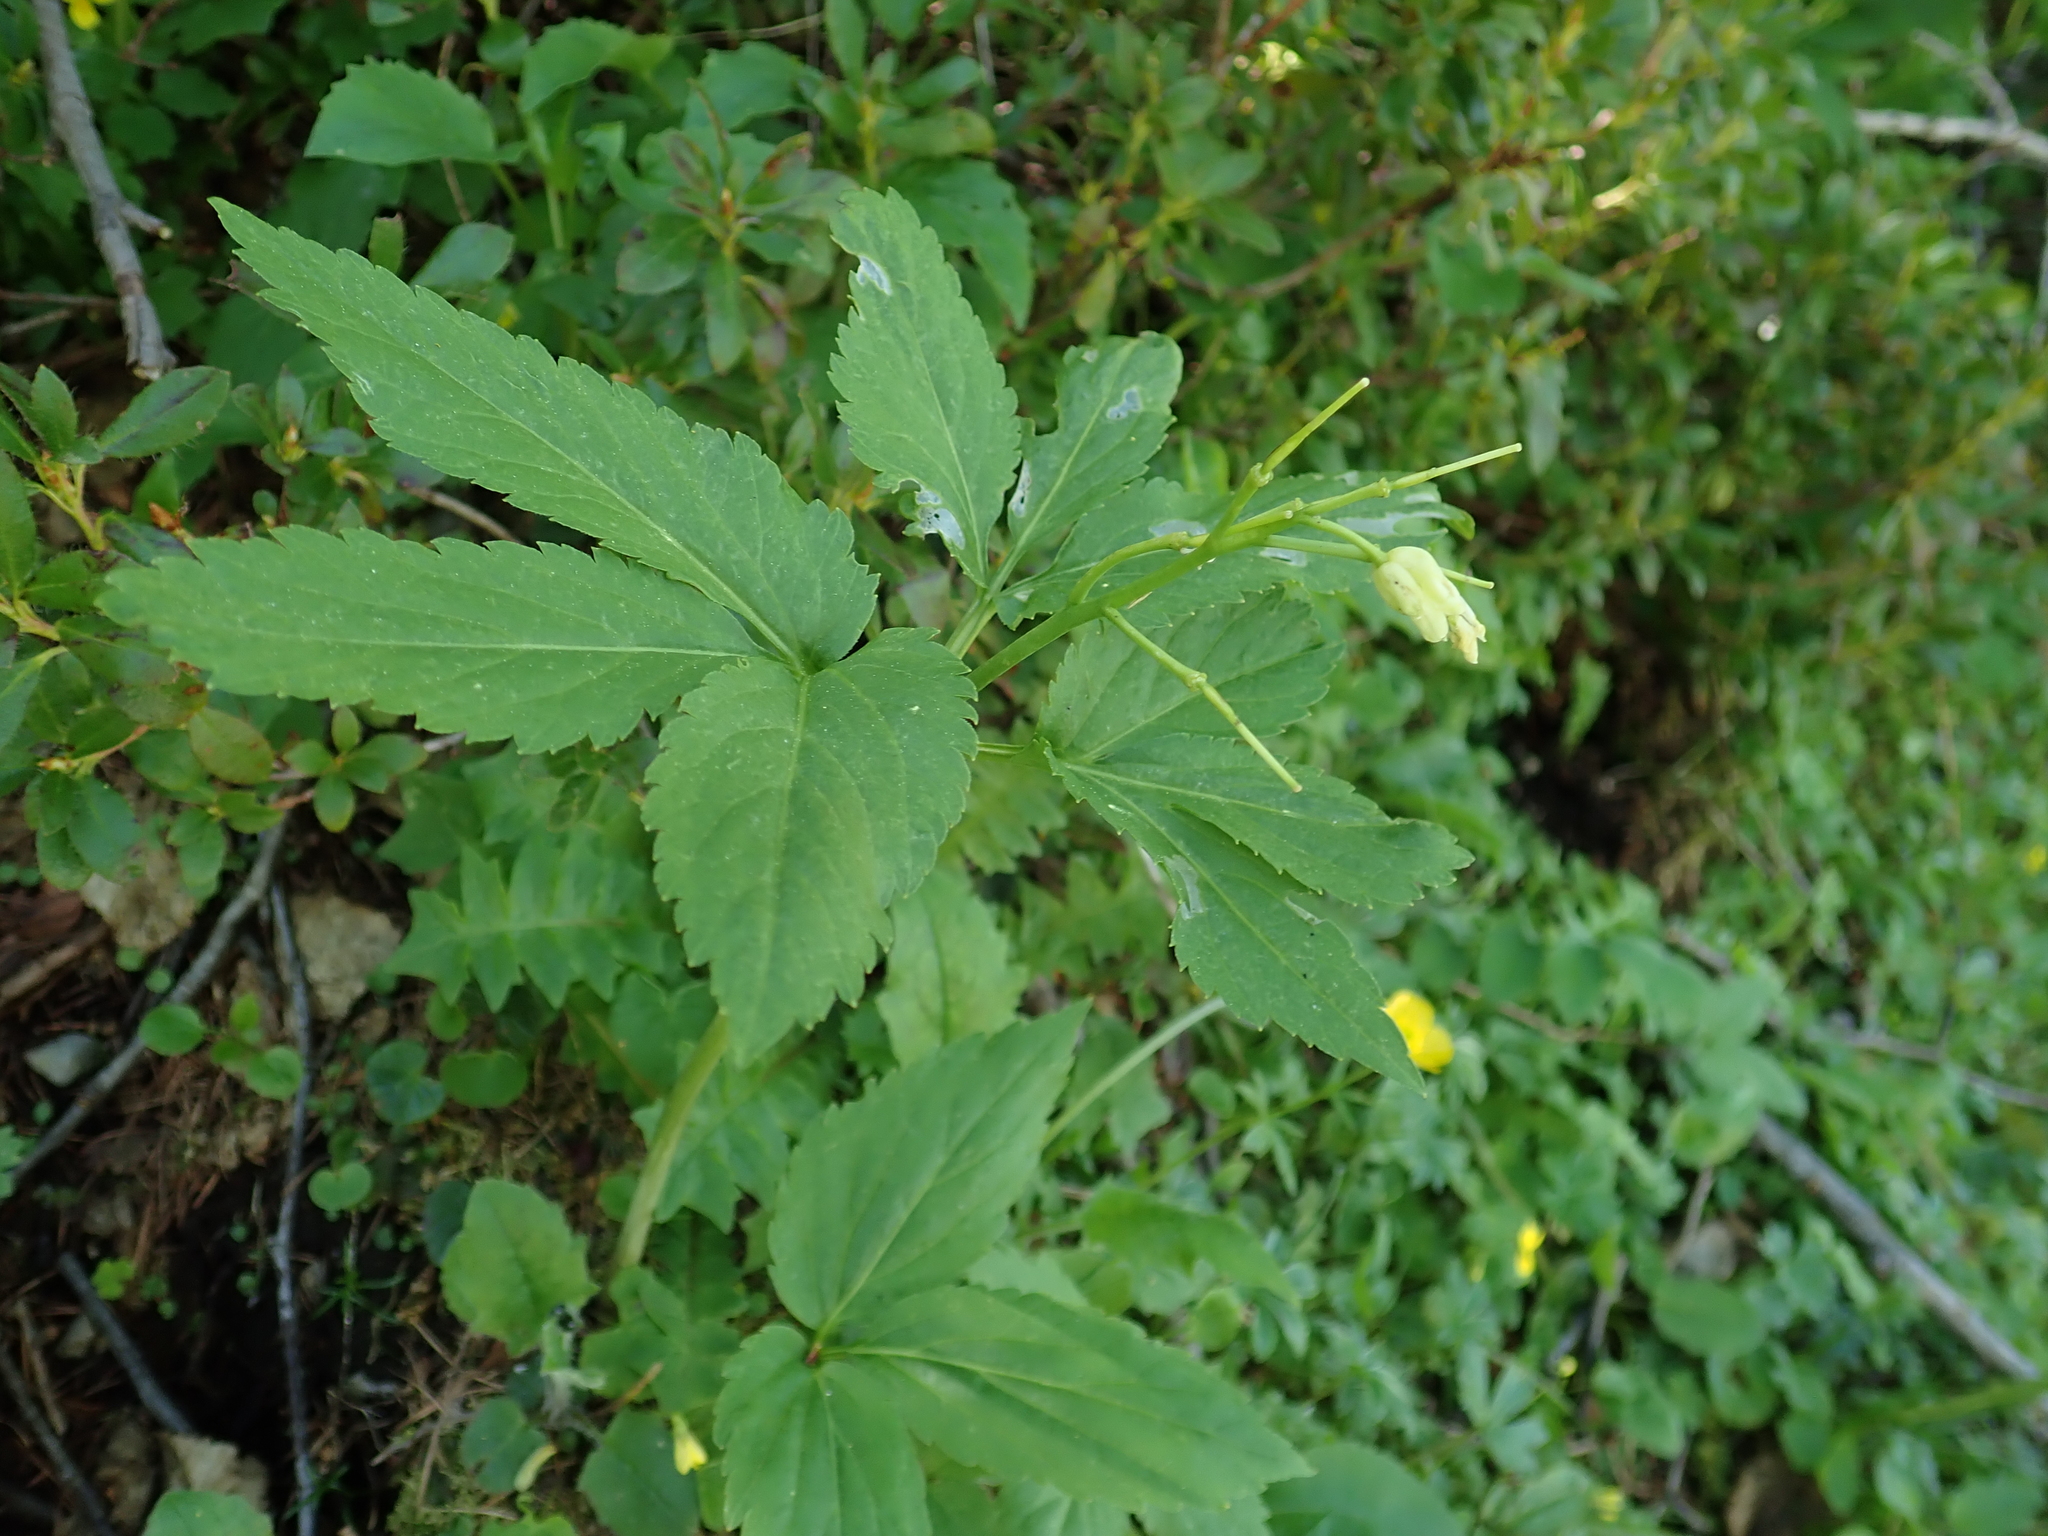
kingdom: Plantae
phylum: Tracheophyta
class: Magnoliopsida
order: Brassicales
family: Brassicaceae
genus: Cardamine
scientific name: Cardamine enneaphyllos
